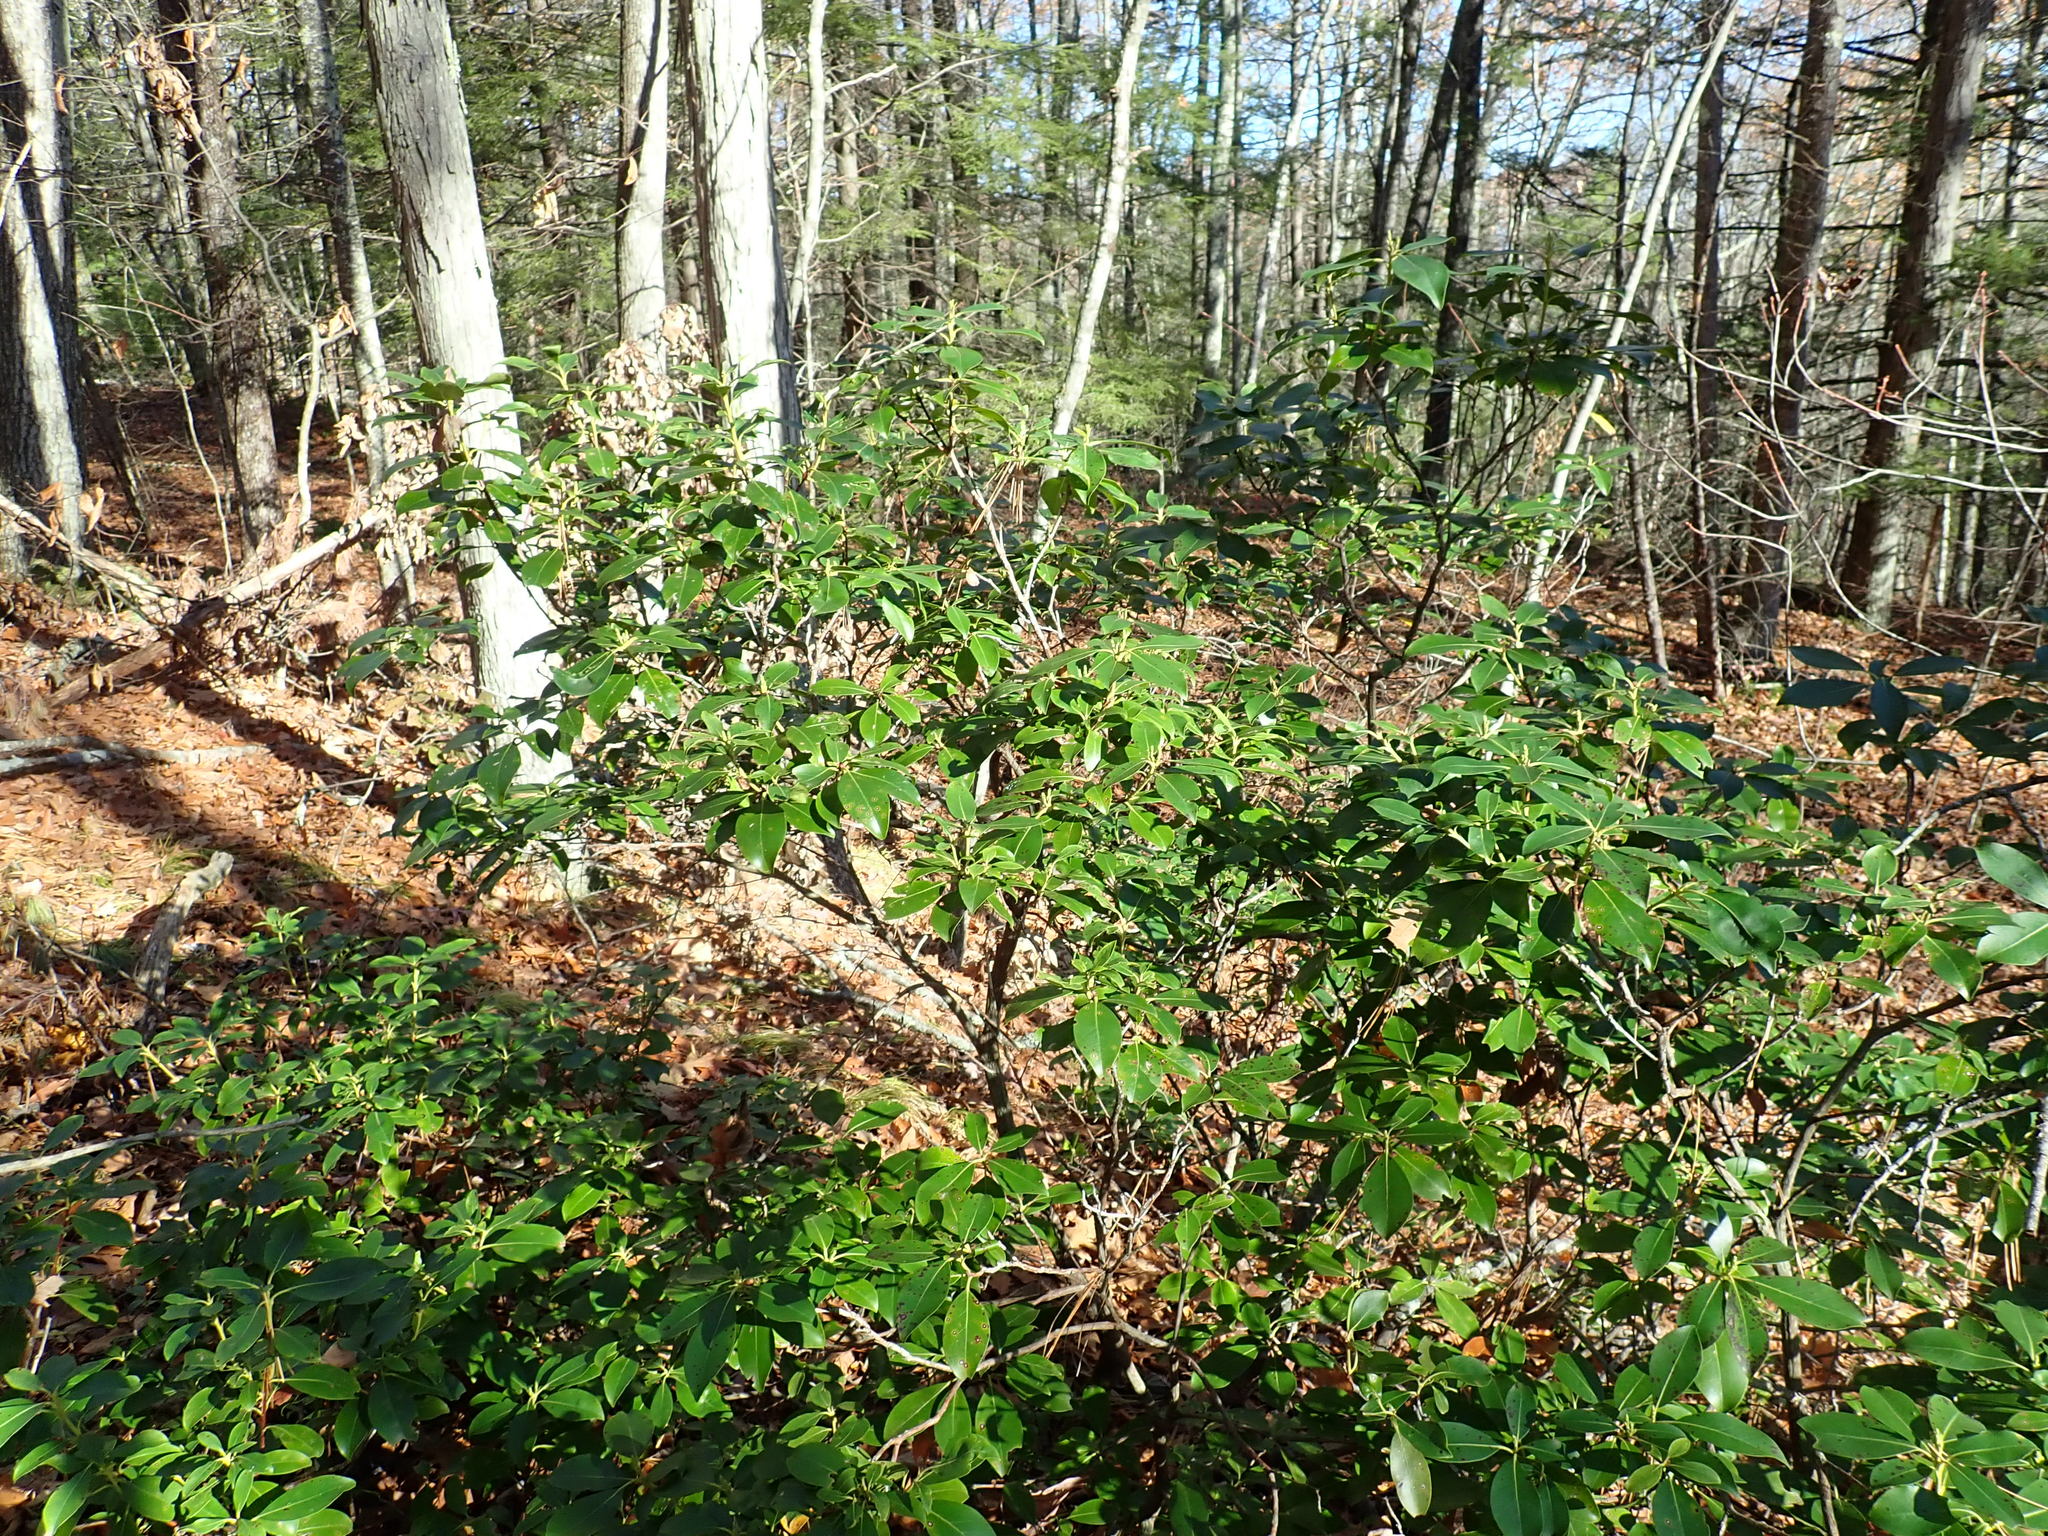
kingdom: Plantae
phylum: Tracheophyta
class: Magnoliopsida
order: Ericales
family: Ericaceae
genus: Kalmia
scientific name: Kalmia latifolia
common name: Mountain-laurel
